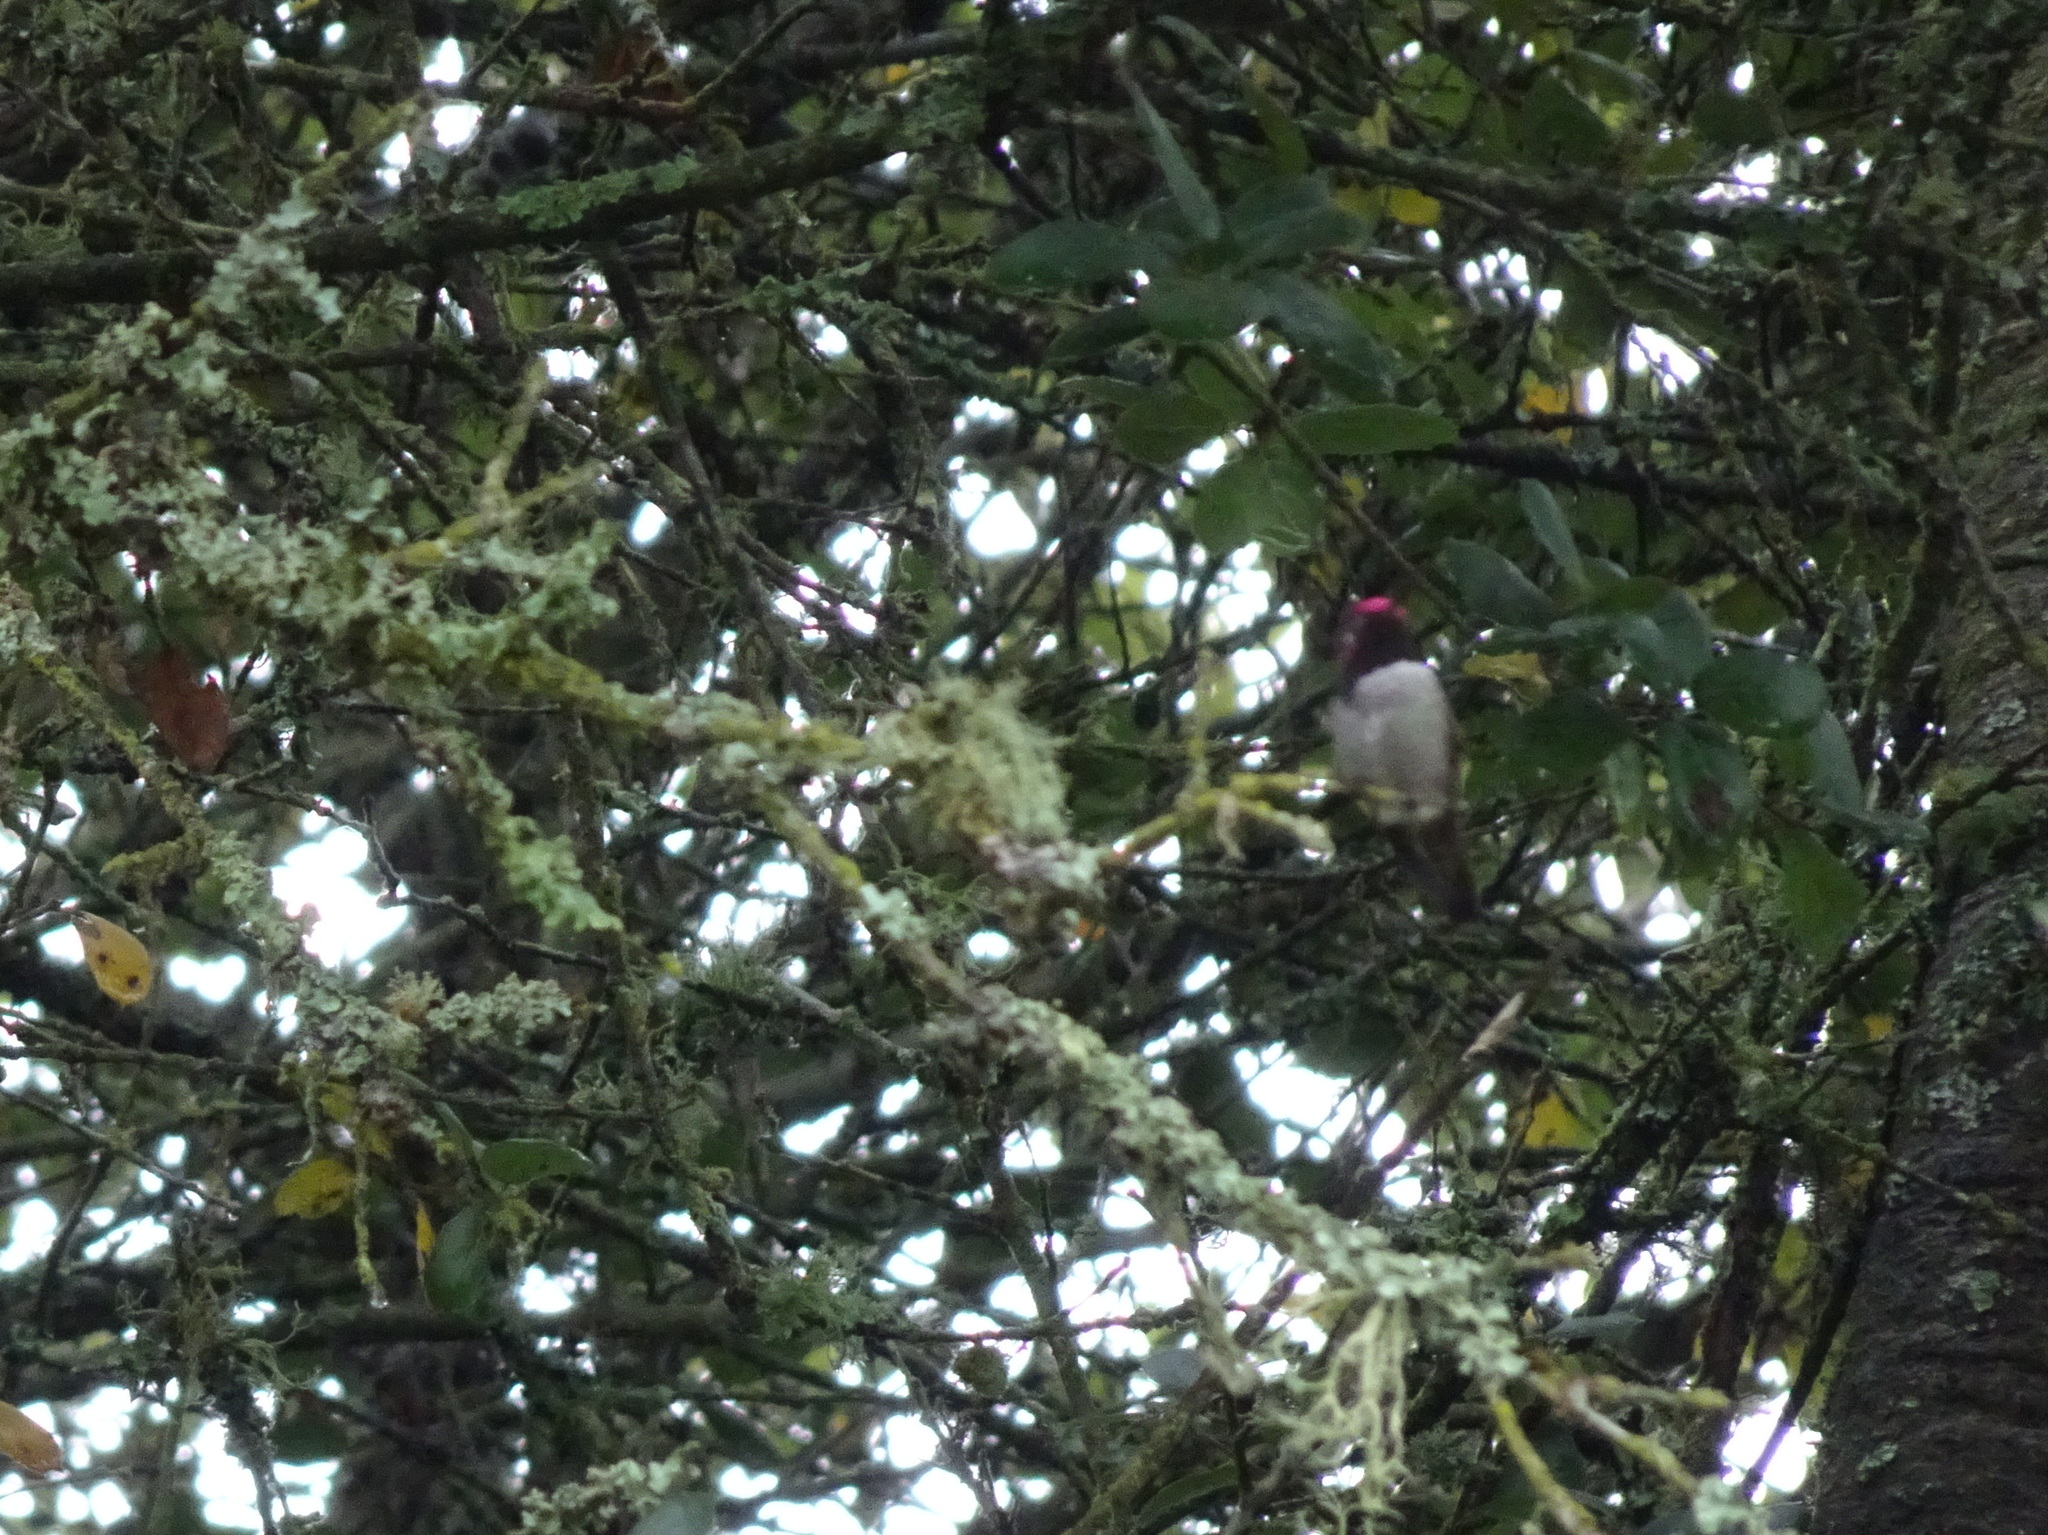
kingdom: Animalia
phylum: Chordata
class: Aves
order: Apodiformes
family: Trochilidae
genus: Calypte
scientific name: Calypte anna
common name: Anna's hummingbird
